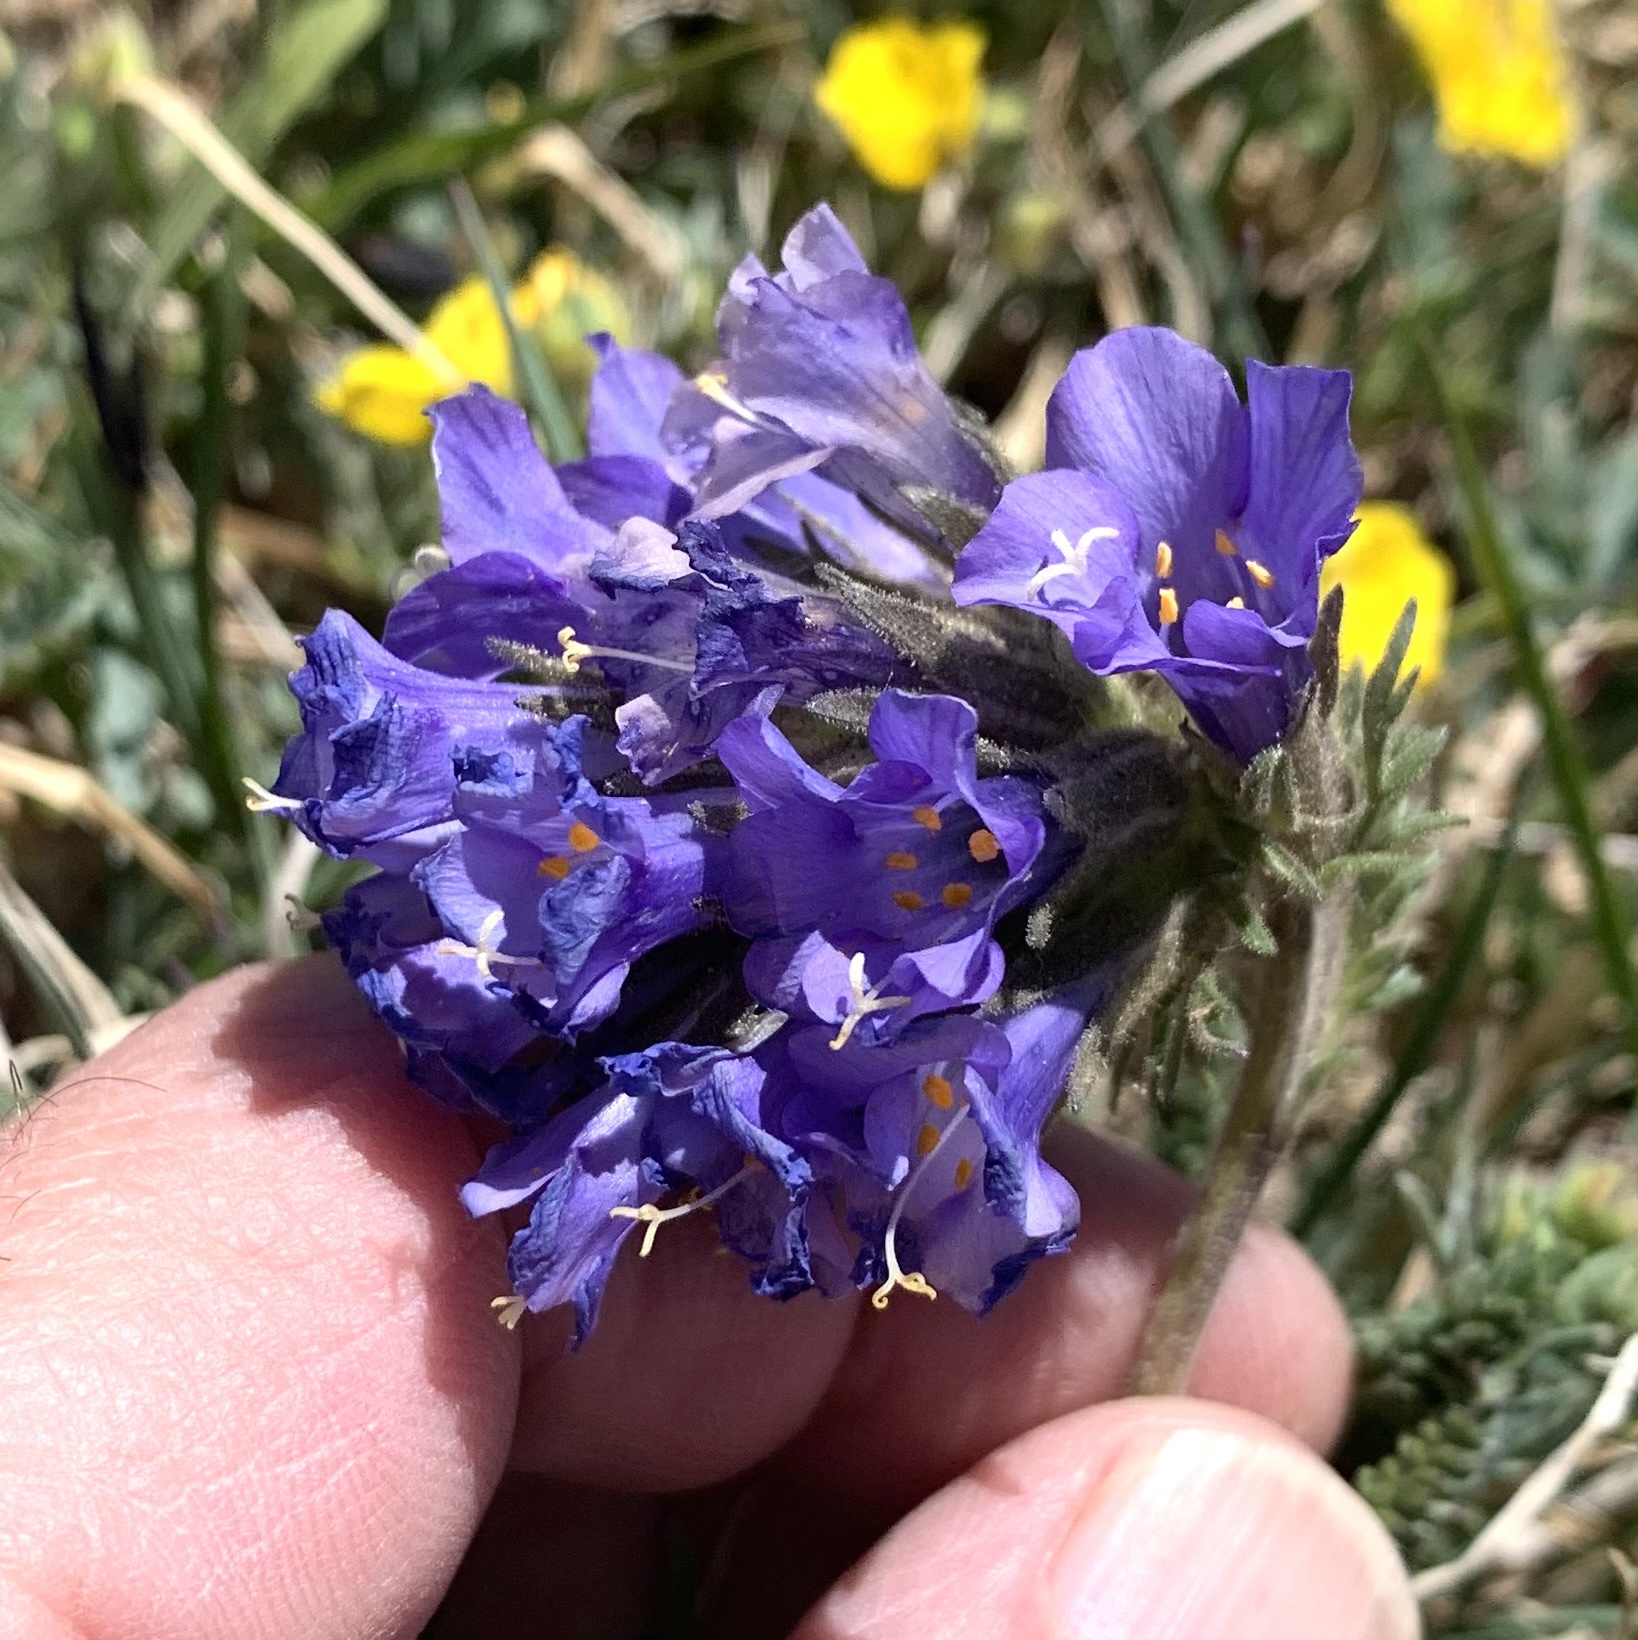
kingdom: Plantae
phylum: Tracheophyta
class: Magnoliopsida
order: Ericales
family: Polemoniaceae
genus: Polemonium
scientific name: Polemonium viscosum
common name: Skunk jacob's-ladder
